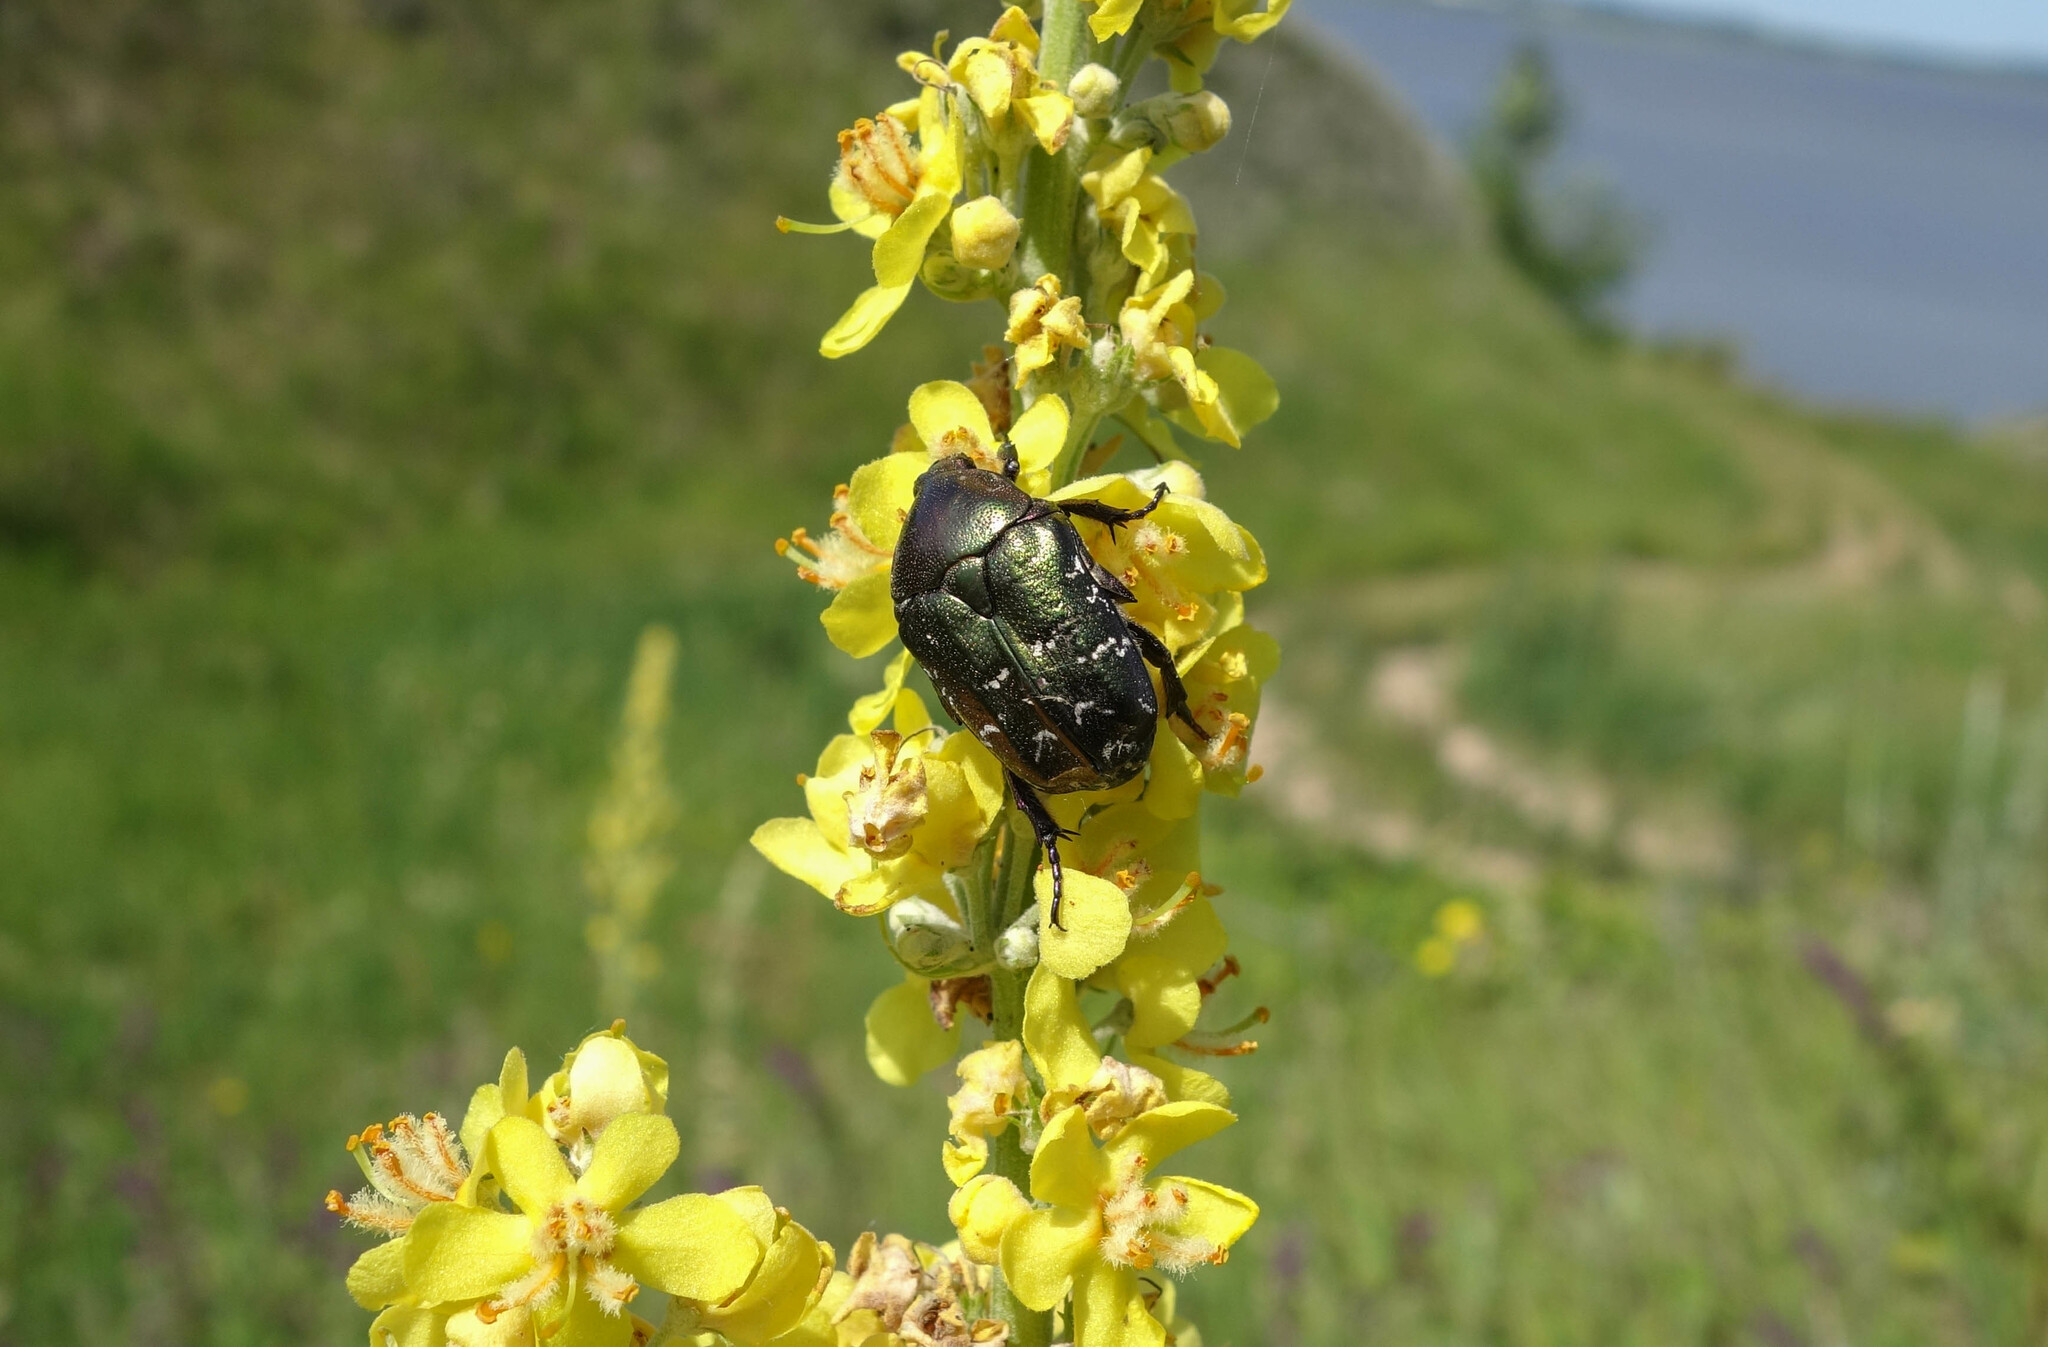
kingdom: Animalia
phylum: Arthropoda
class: Insecta
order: Coleoptera
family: Scarabaeidae
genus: Protaetia
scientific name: Protaetia cuprea
